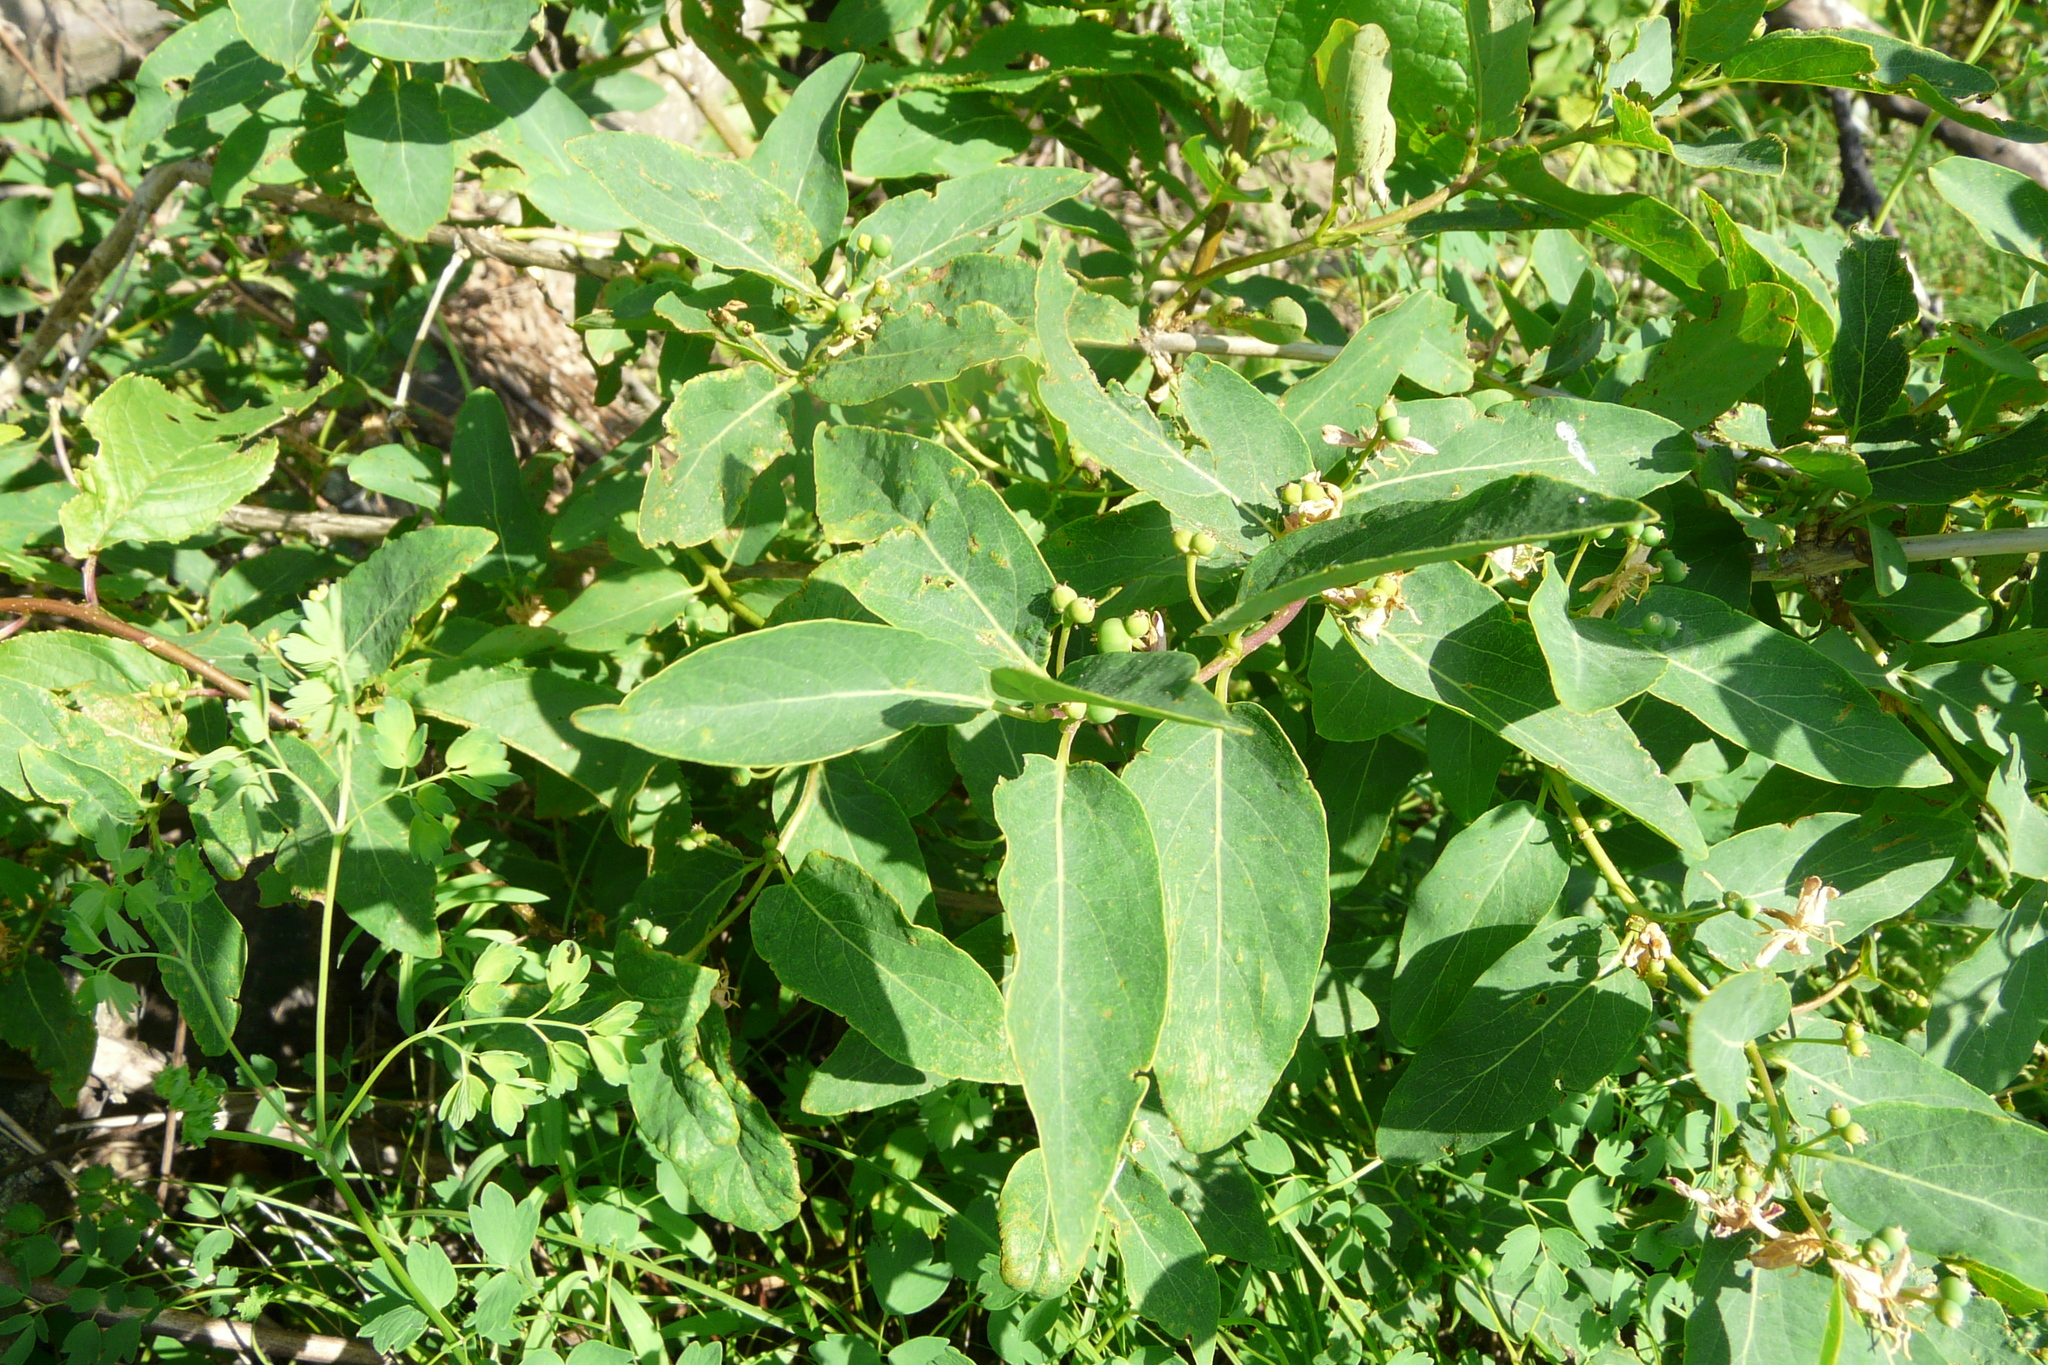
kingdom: Plantae
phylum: Tracheophyta
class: Magnoliopsida
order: Dipsacales
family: Caprifoliaceae
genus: Lonicera
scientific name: Lonicera tatarica
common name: Tatarian honeysuckle
